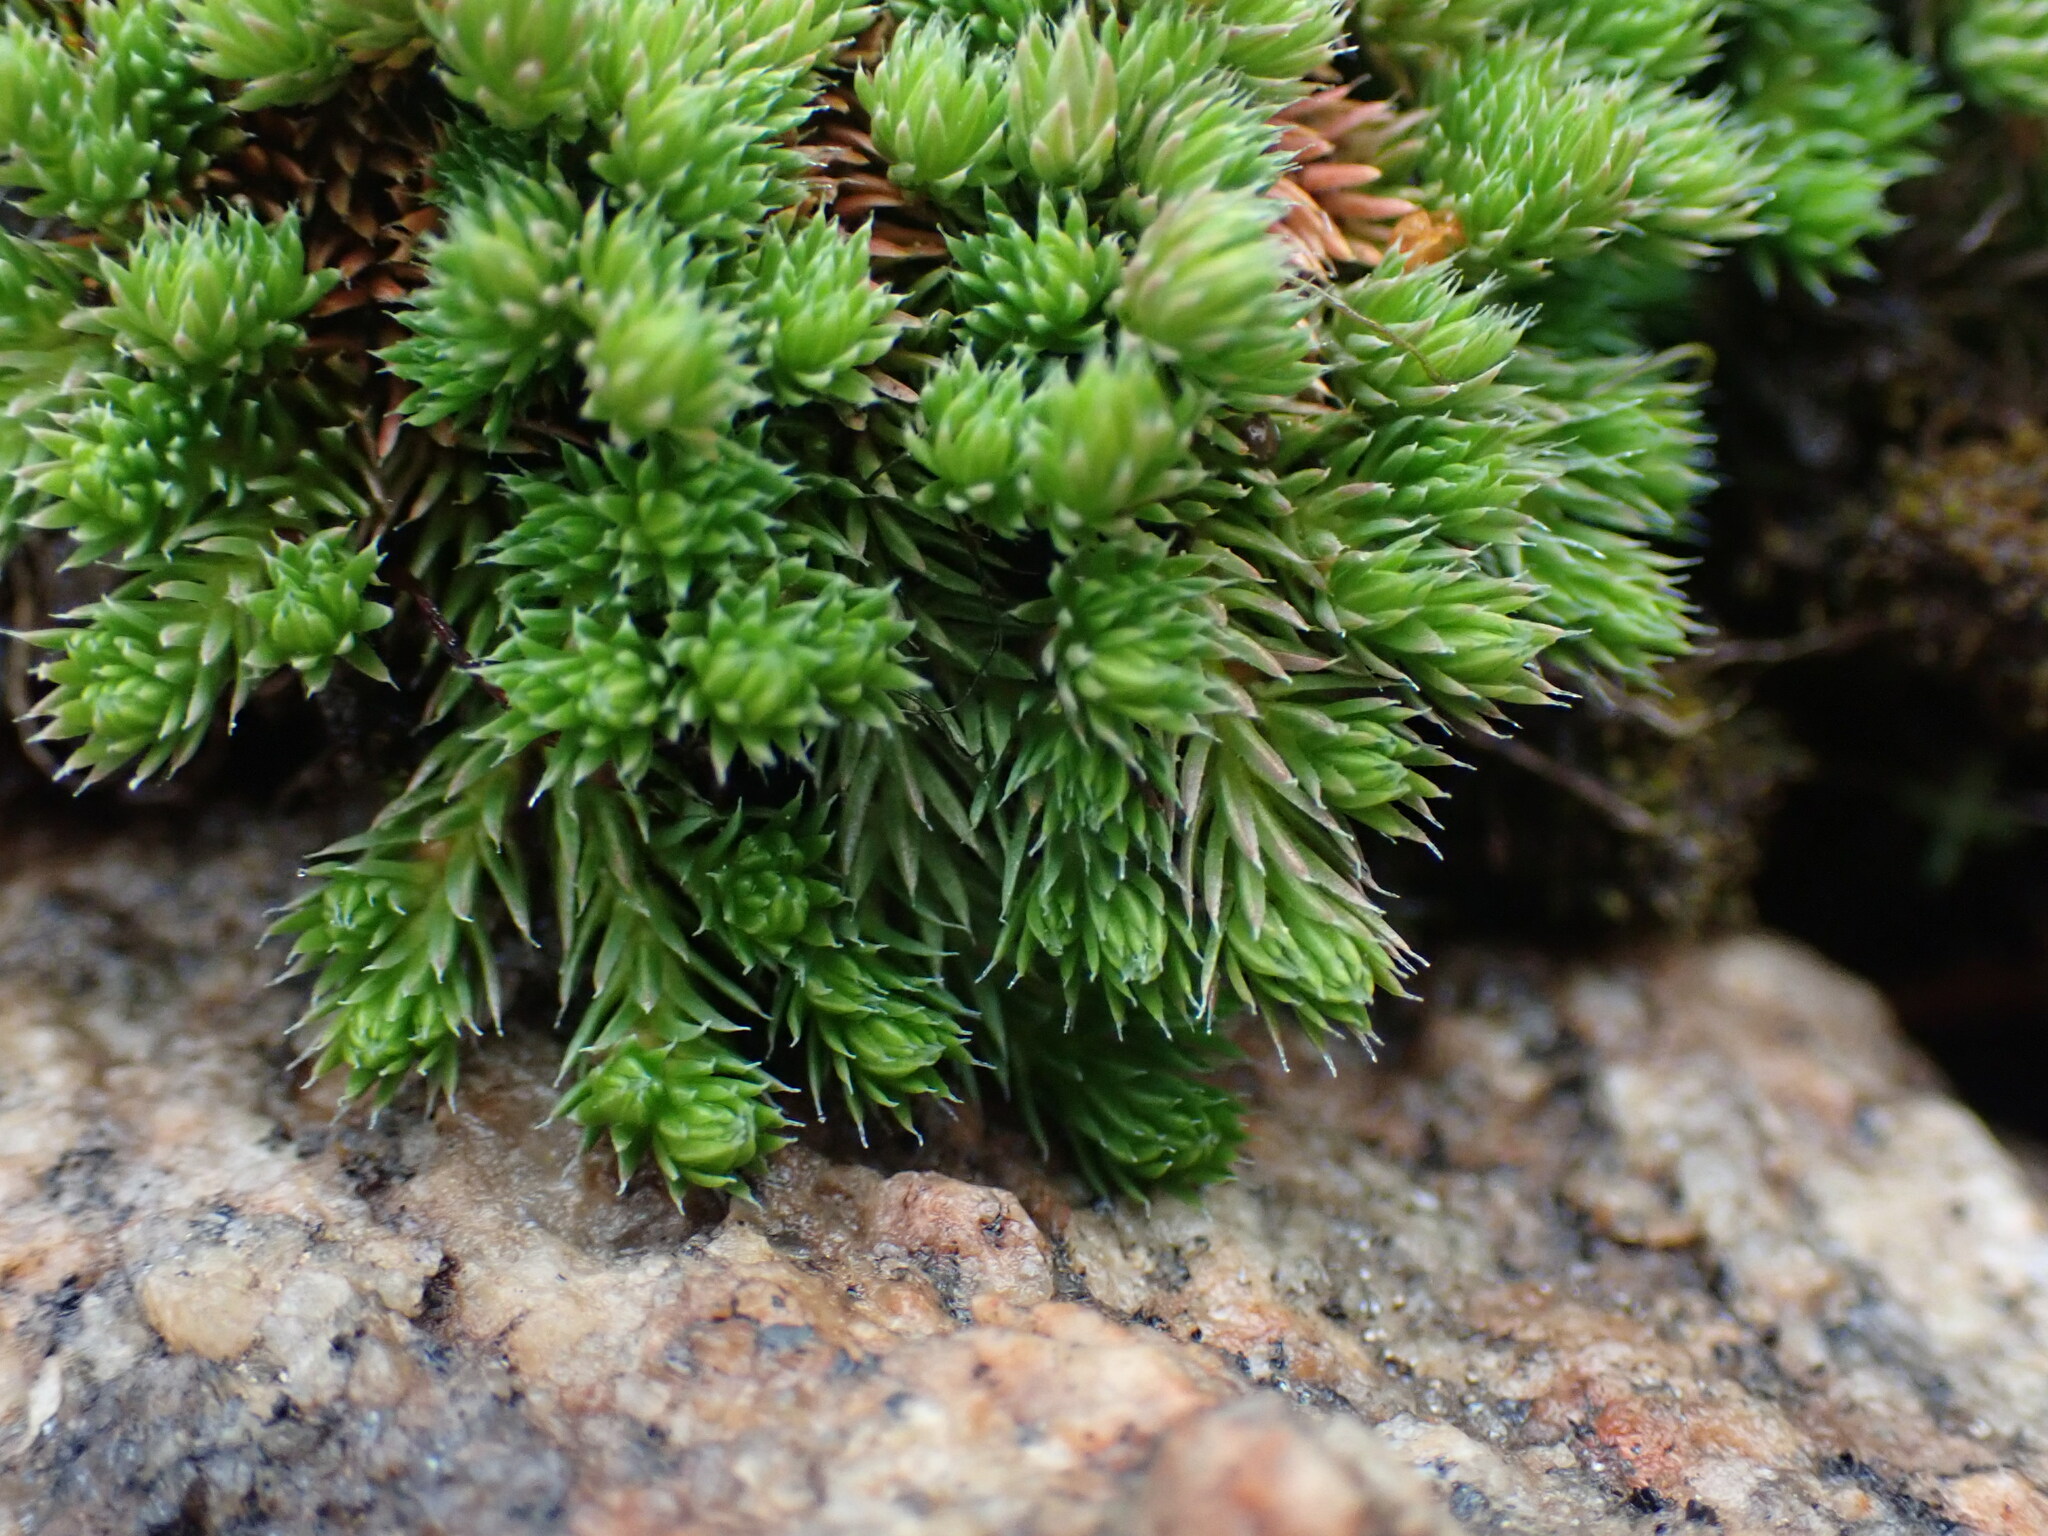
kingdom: Plantae
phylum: Tracheophyta
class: Lycopodiopsida
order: Selaginellales
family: Selaginellaceae
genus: Selaginella
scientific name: Selaginella densa
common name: Mountain spike-moss
